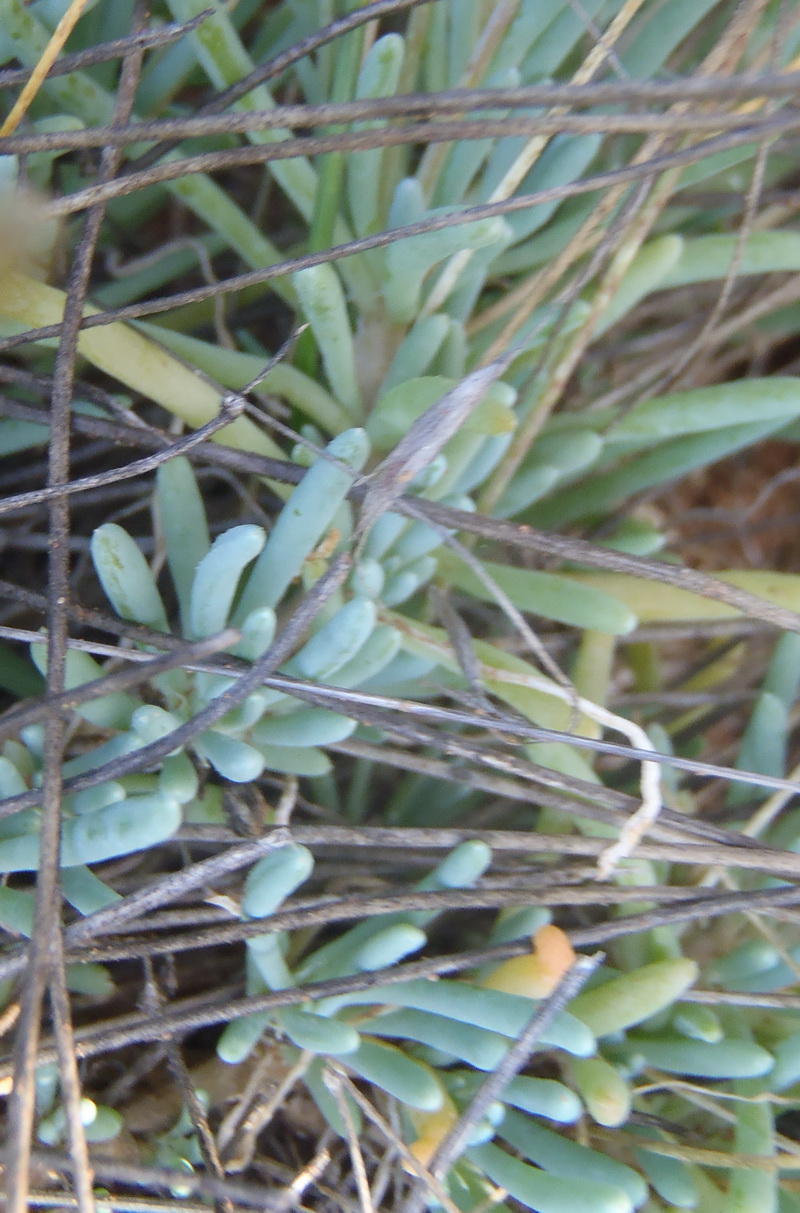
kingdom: Plantae
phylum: Tracheophyta
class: Magnoliopsida
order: Caryophyllales
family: Kewaceae
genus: Kewa
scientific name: Kewa salsoloides
